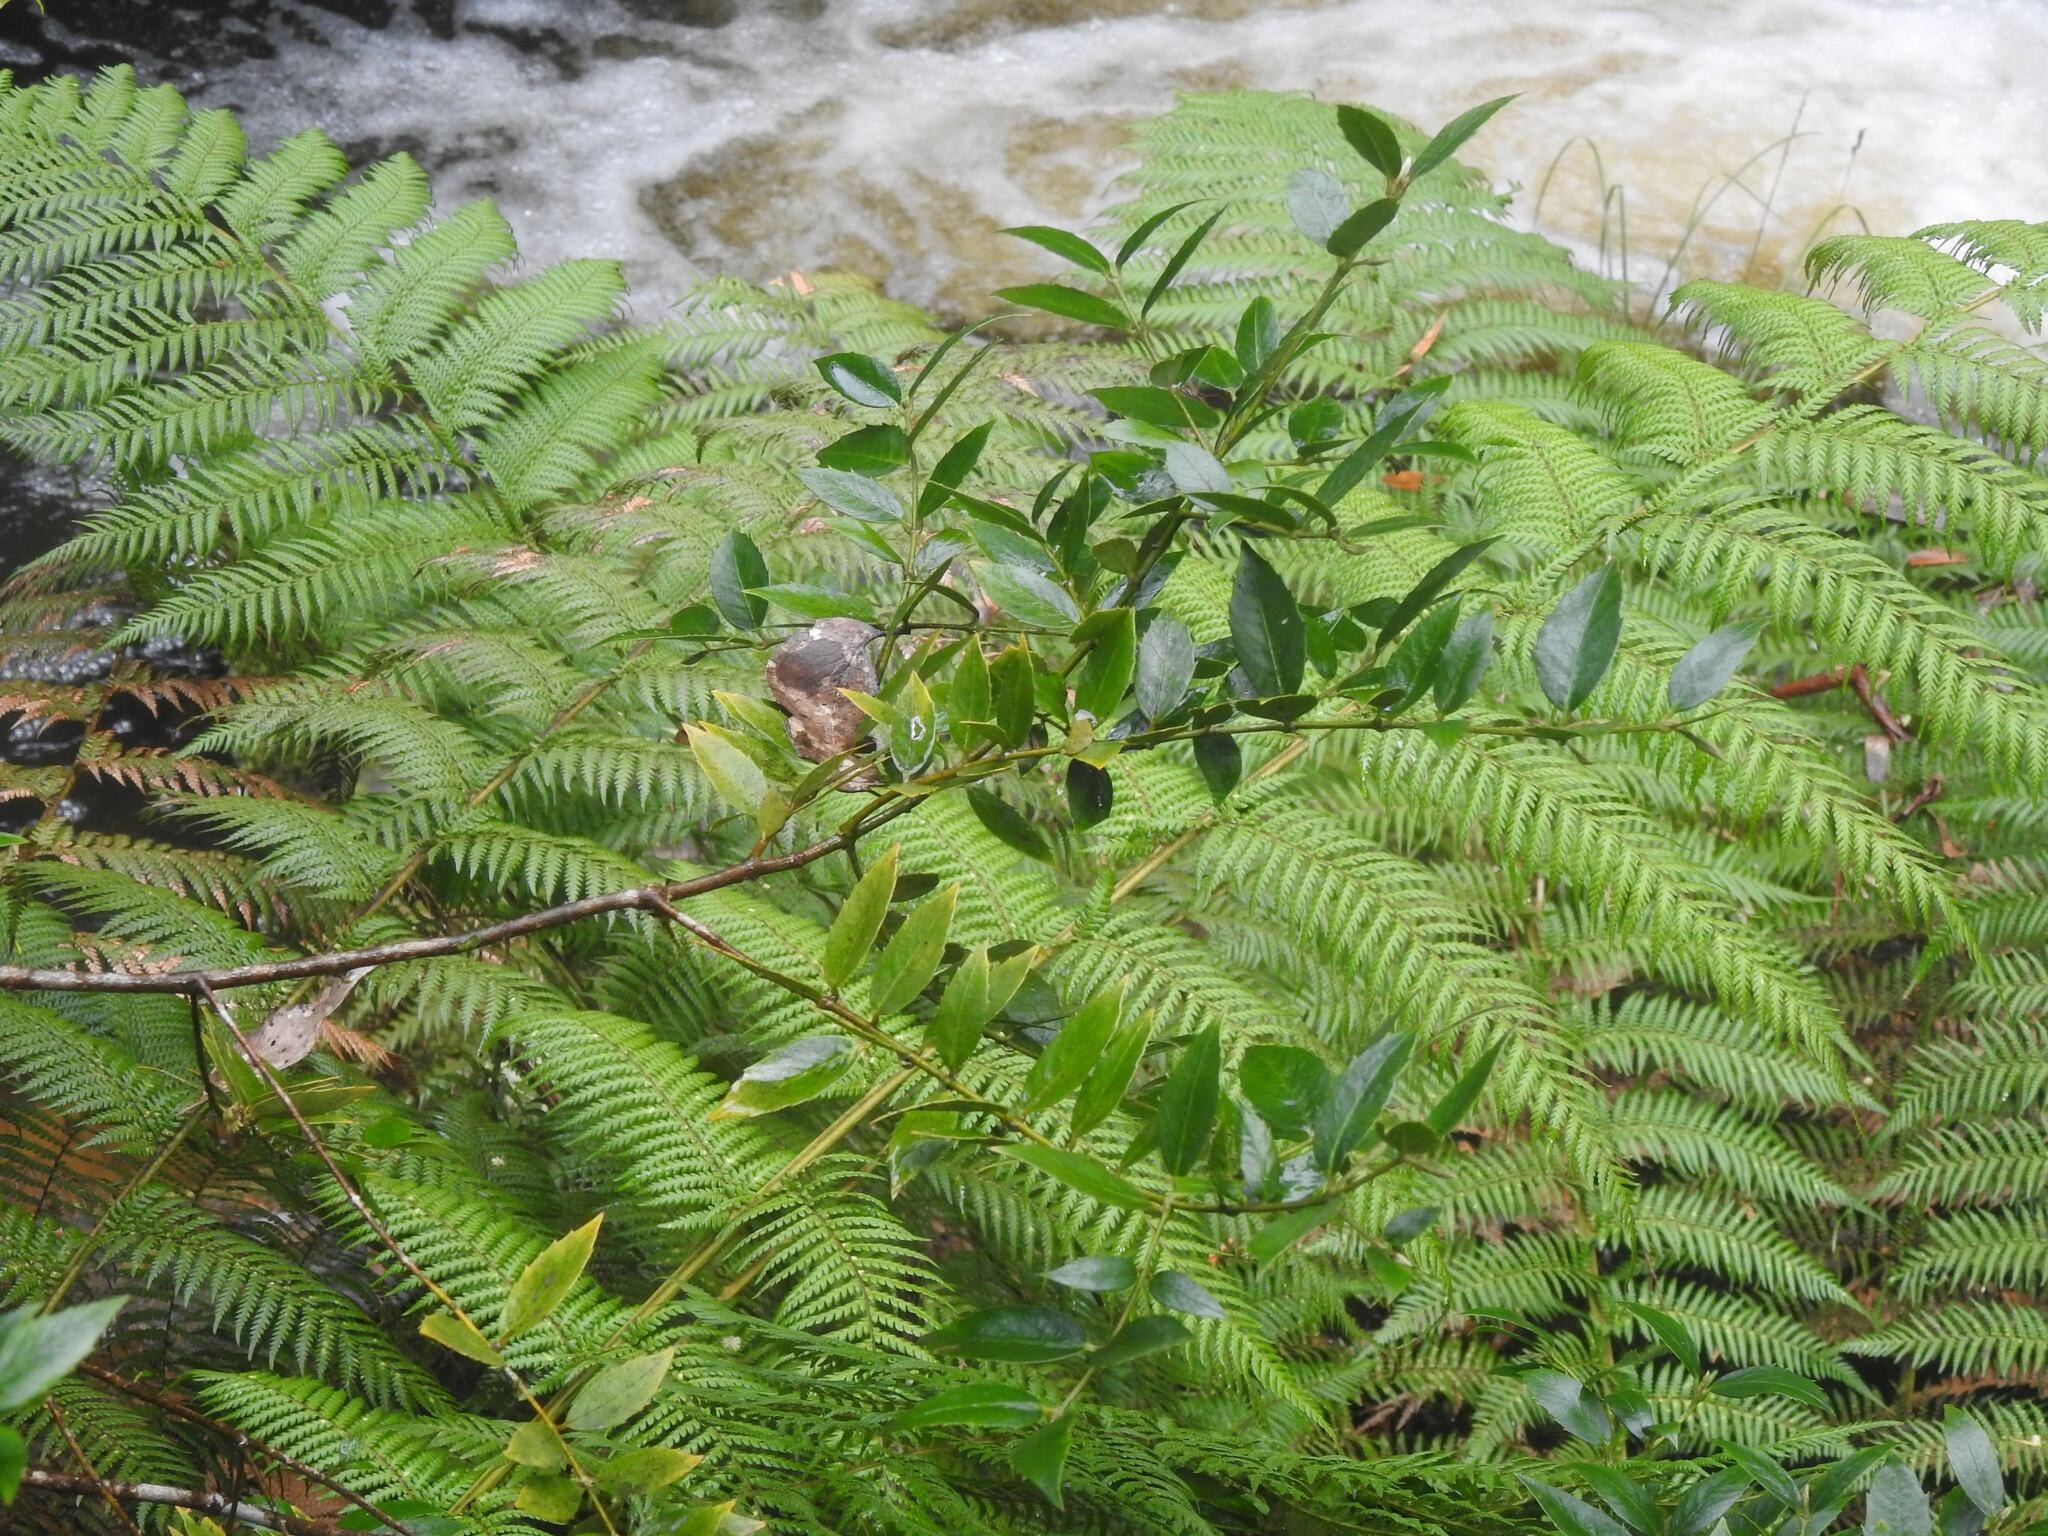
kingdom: Plantae
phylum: Tracheophyta
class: Magnoliopsida
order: Laurales
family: Atherospermataceae
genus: Atherosperma
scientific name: Atherosperma moschatum
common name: Tasmanian-sassafras
